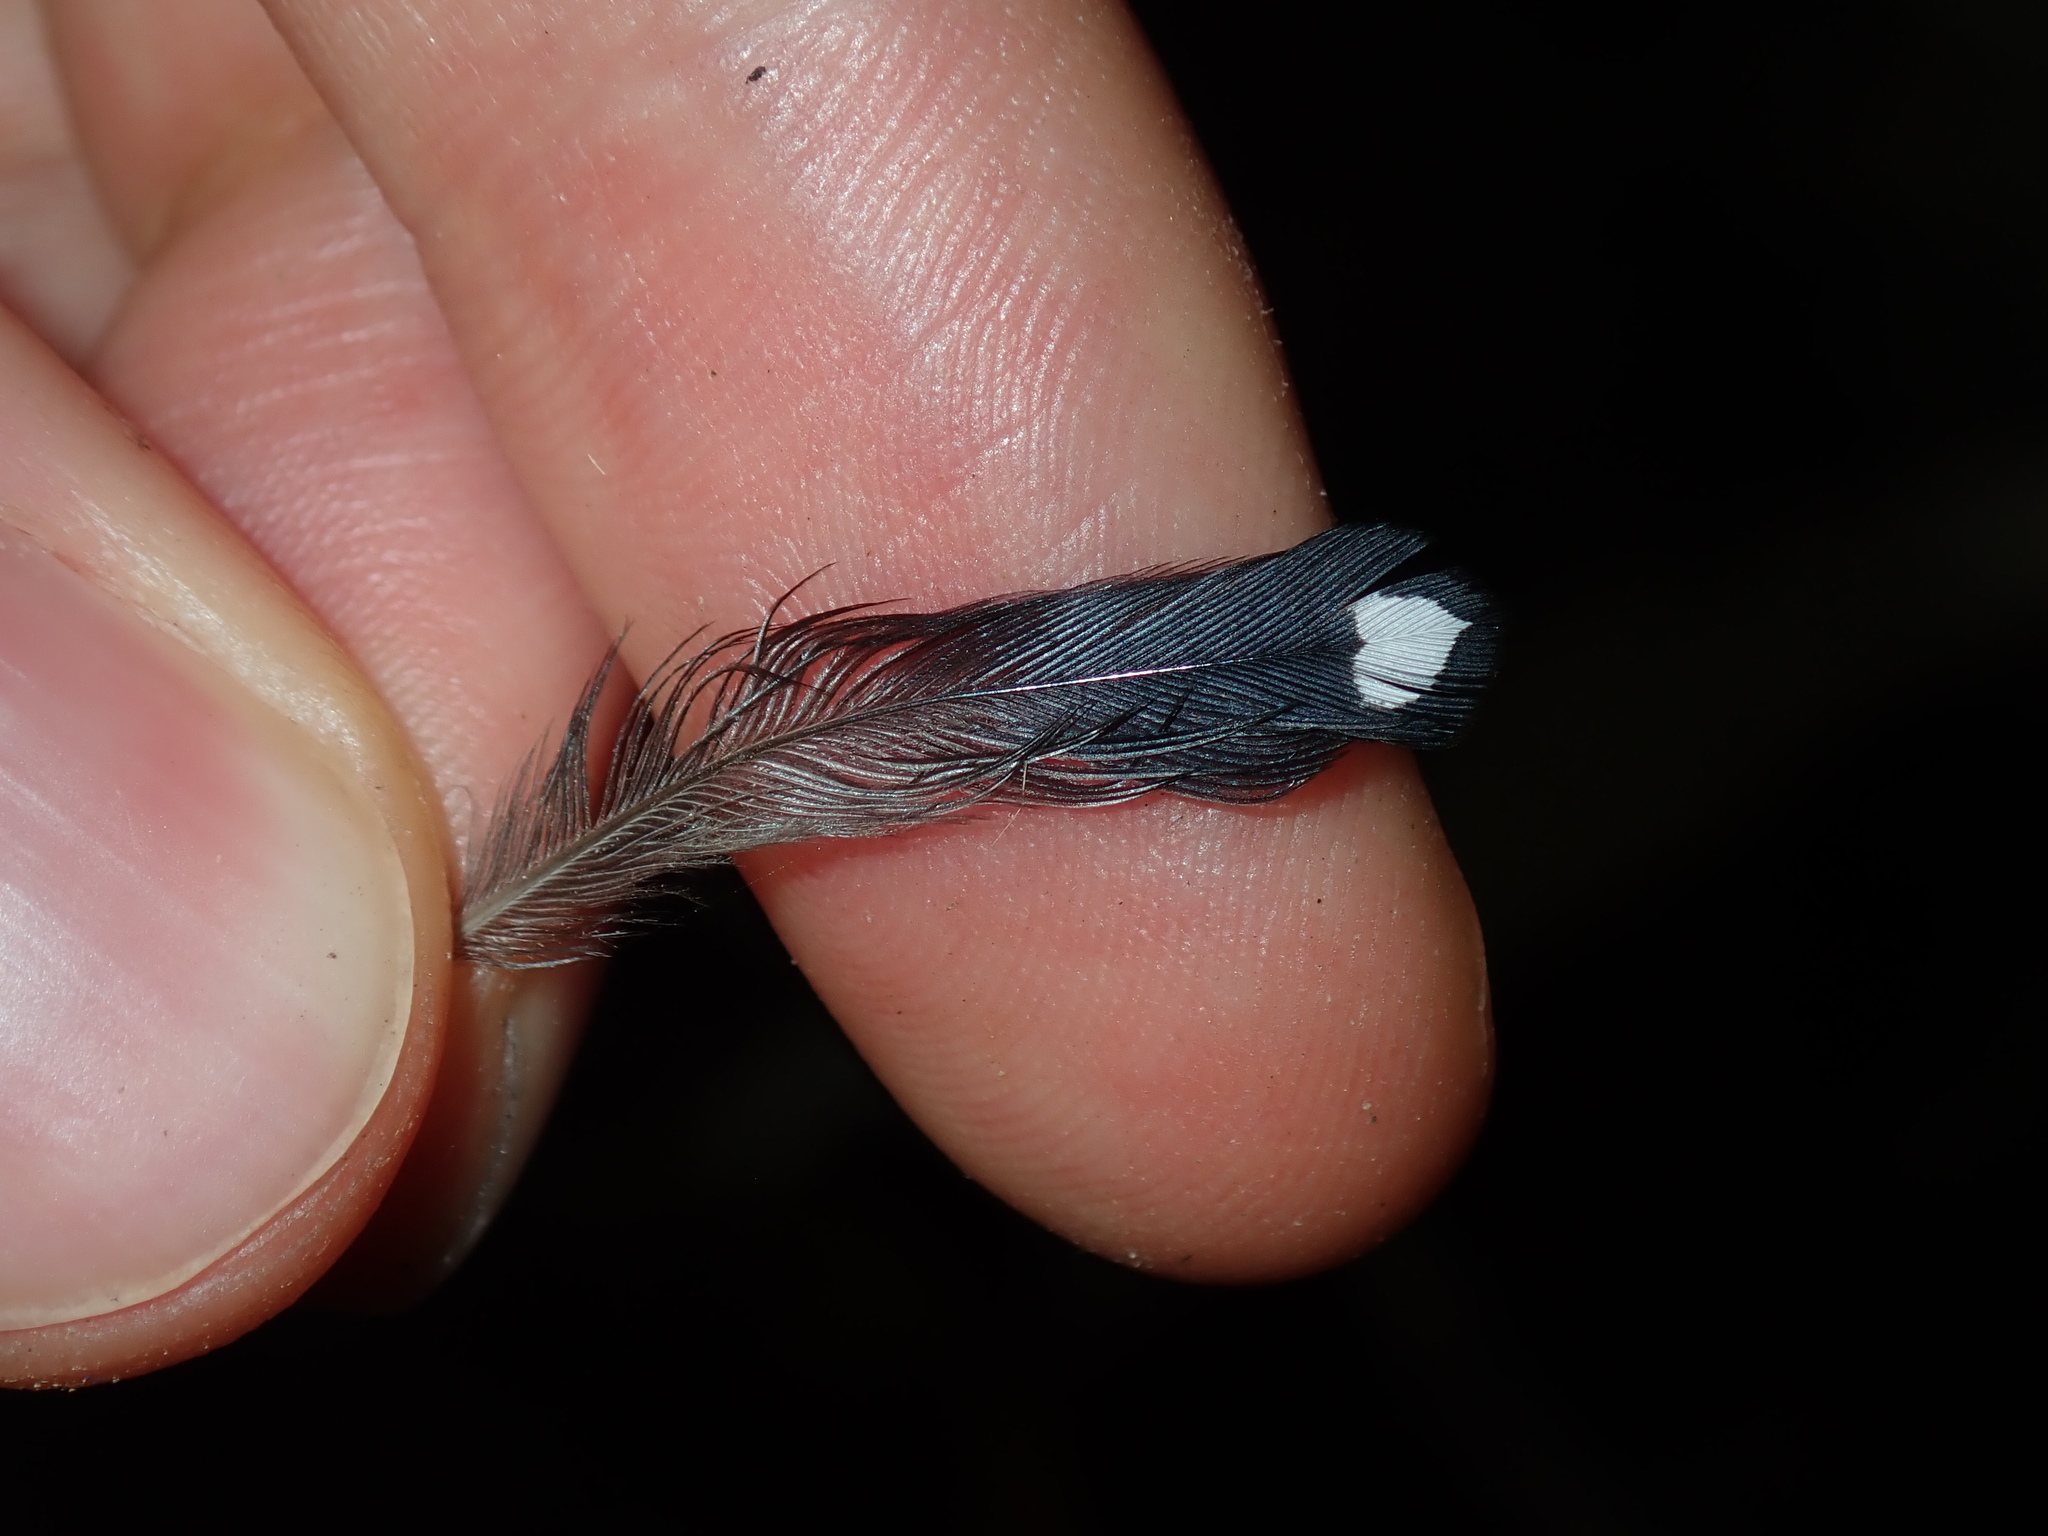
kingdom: Animalia
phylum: Chordata
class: Aves
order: Passeriformes
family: Pardalotidae
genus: Pardalotus
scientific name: Pardalotus punctatus
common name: Spotted pardalote
